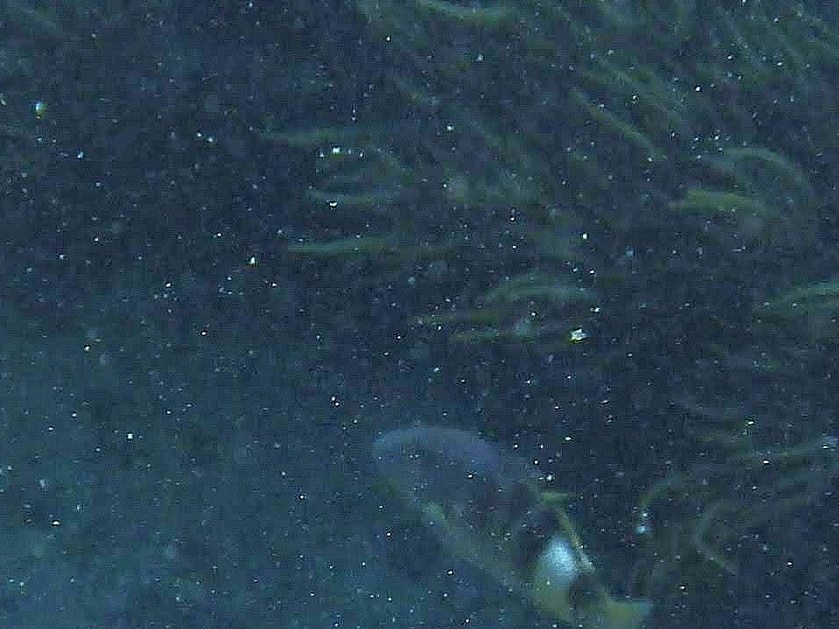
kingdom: Animalia
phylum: Chordata
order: Perciformes
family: Mullidae
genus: Parupeneus
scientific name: Parupeneus multifasciatus
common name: Manybar goatfish
